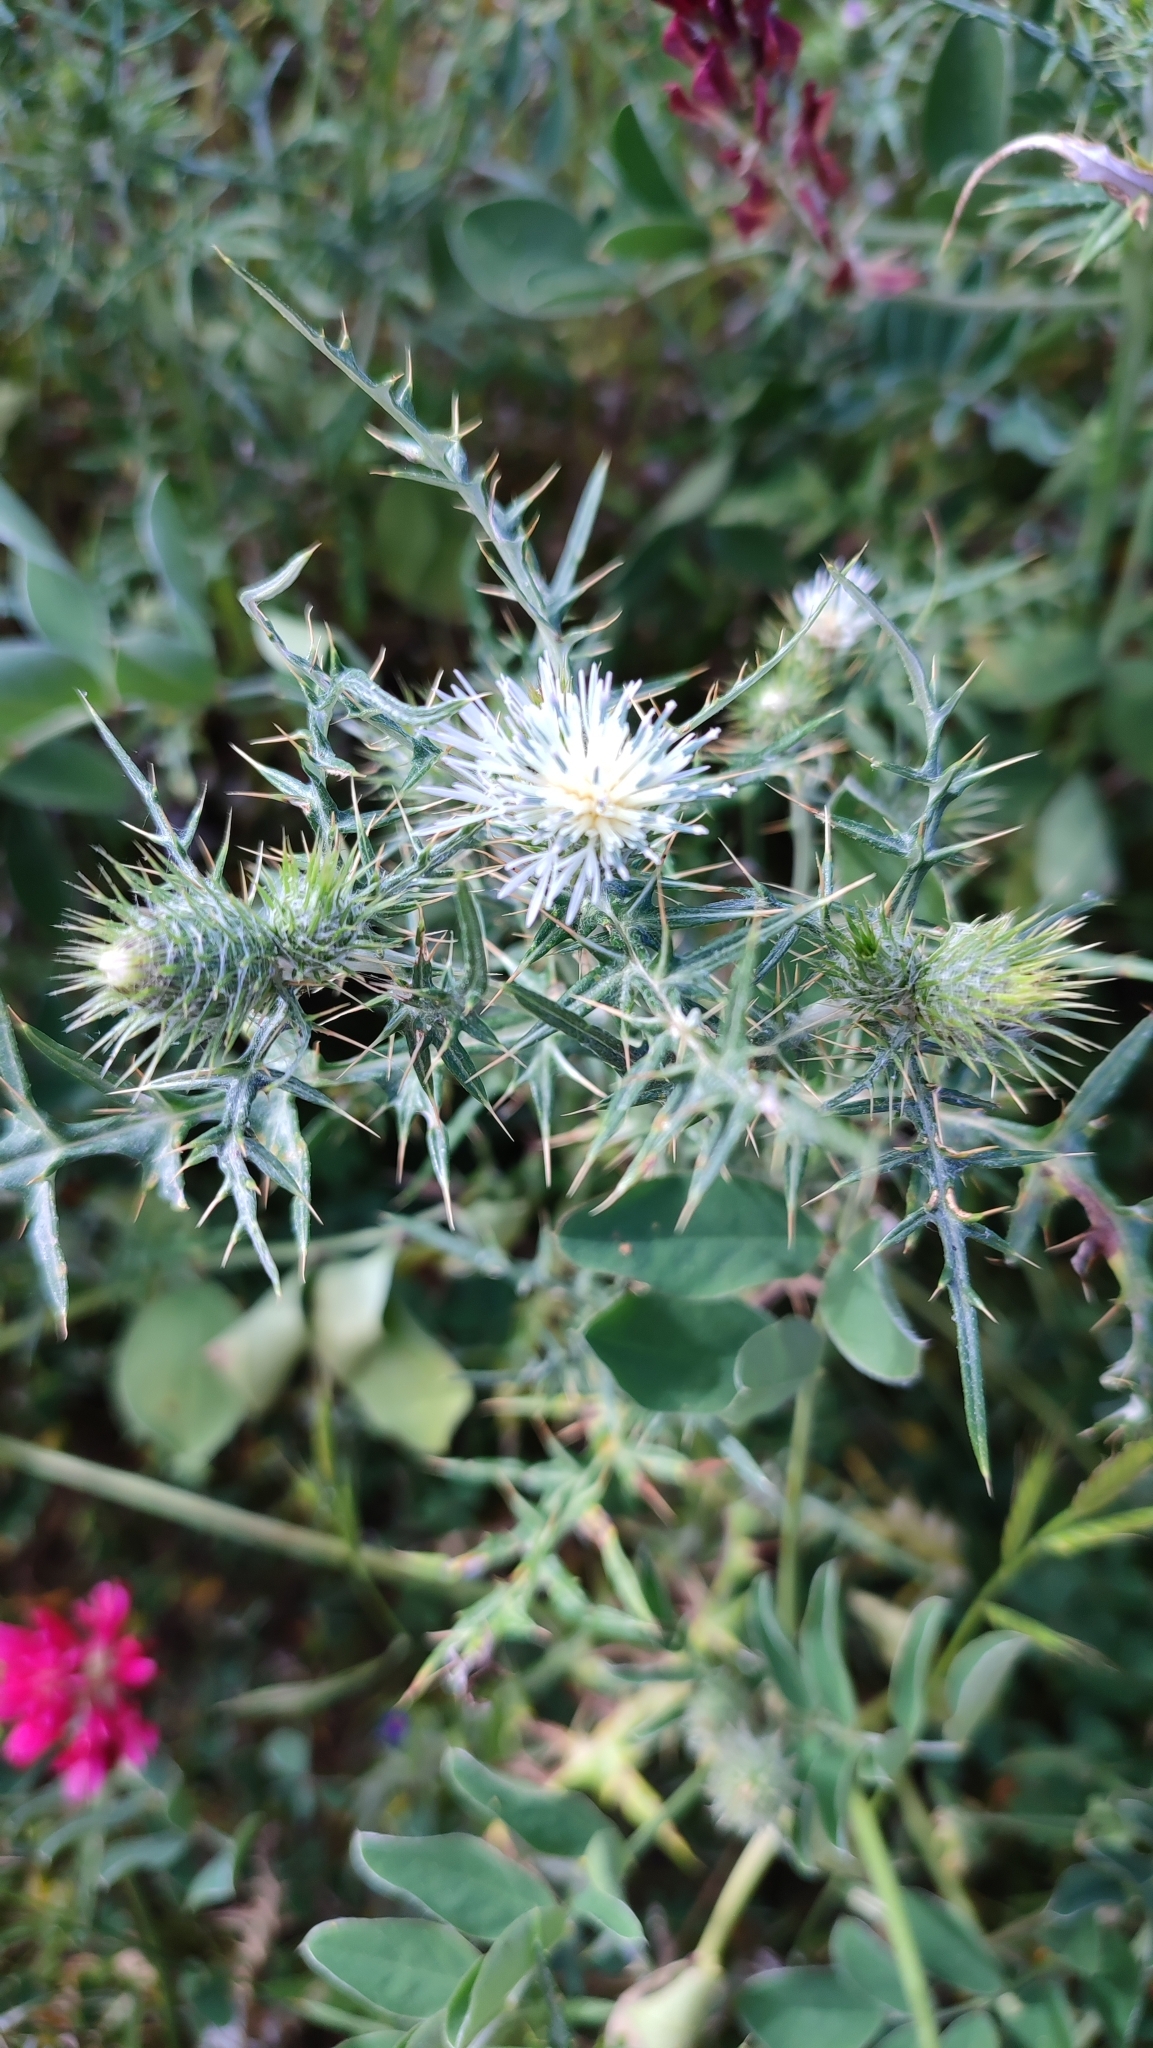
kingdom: Plantae
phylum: Tracheophyta
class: Magnoliopsida
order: Asterales
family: Asteraceae
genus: Galactites
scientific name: Galactites tomentosa
